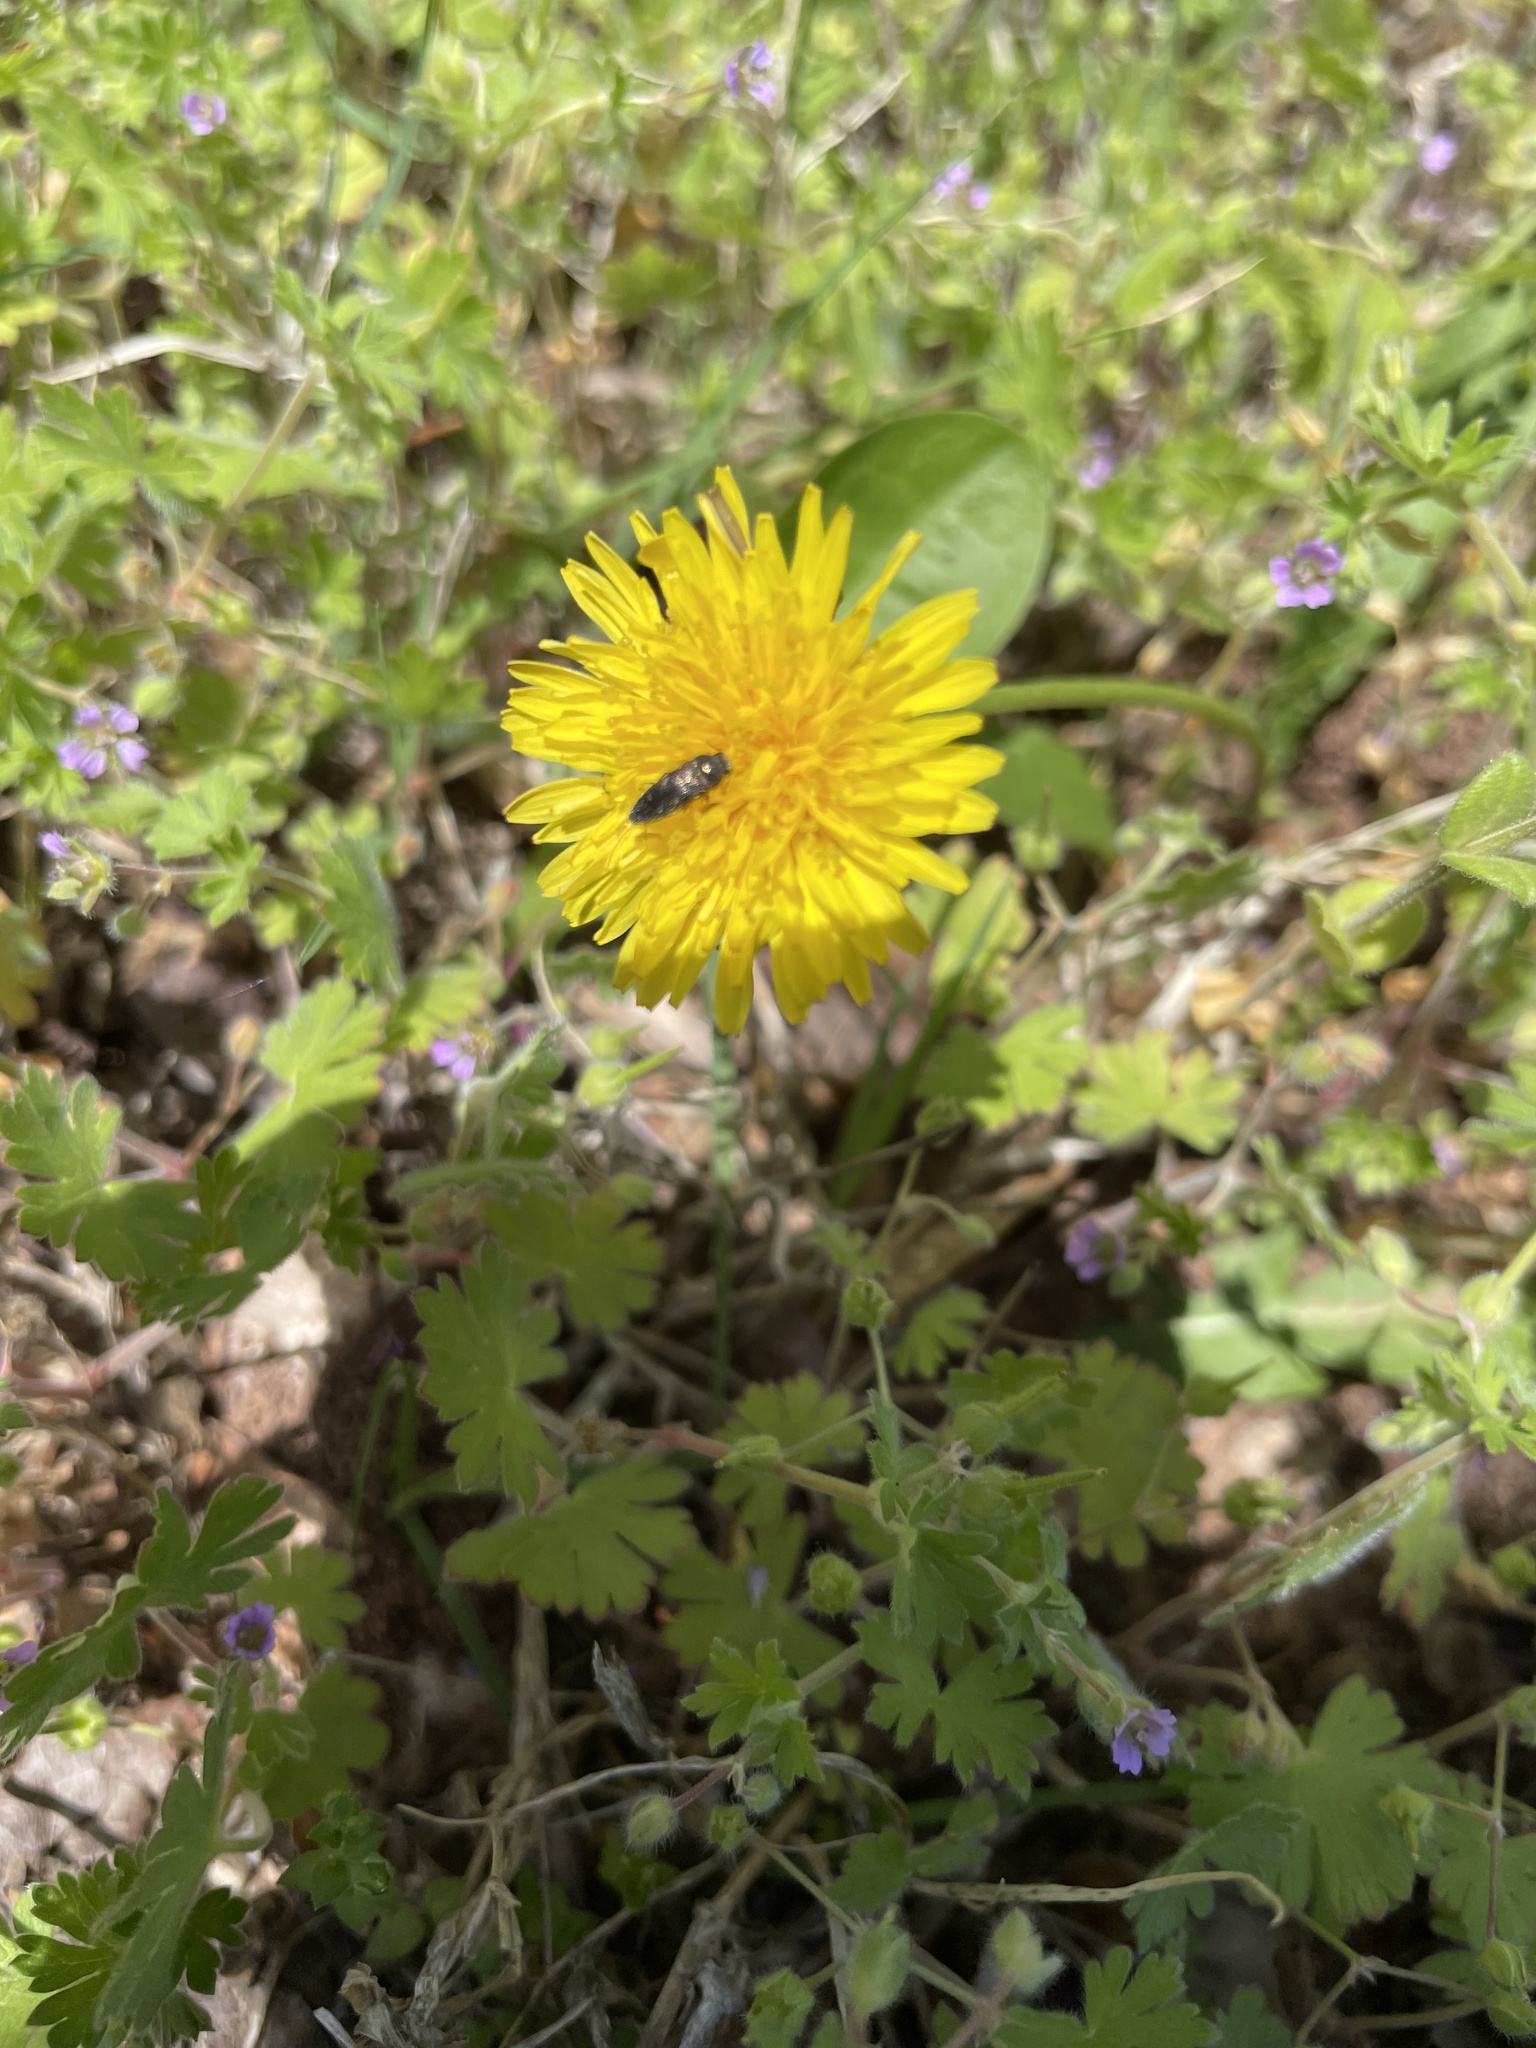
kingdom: Animalia
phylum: Arthropoda
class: Insecta
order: Coleoptera
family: Buprestidae
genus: Acmaeodera
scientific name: Acmaeodera tubulus
